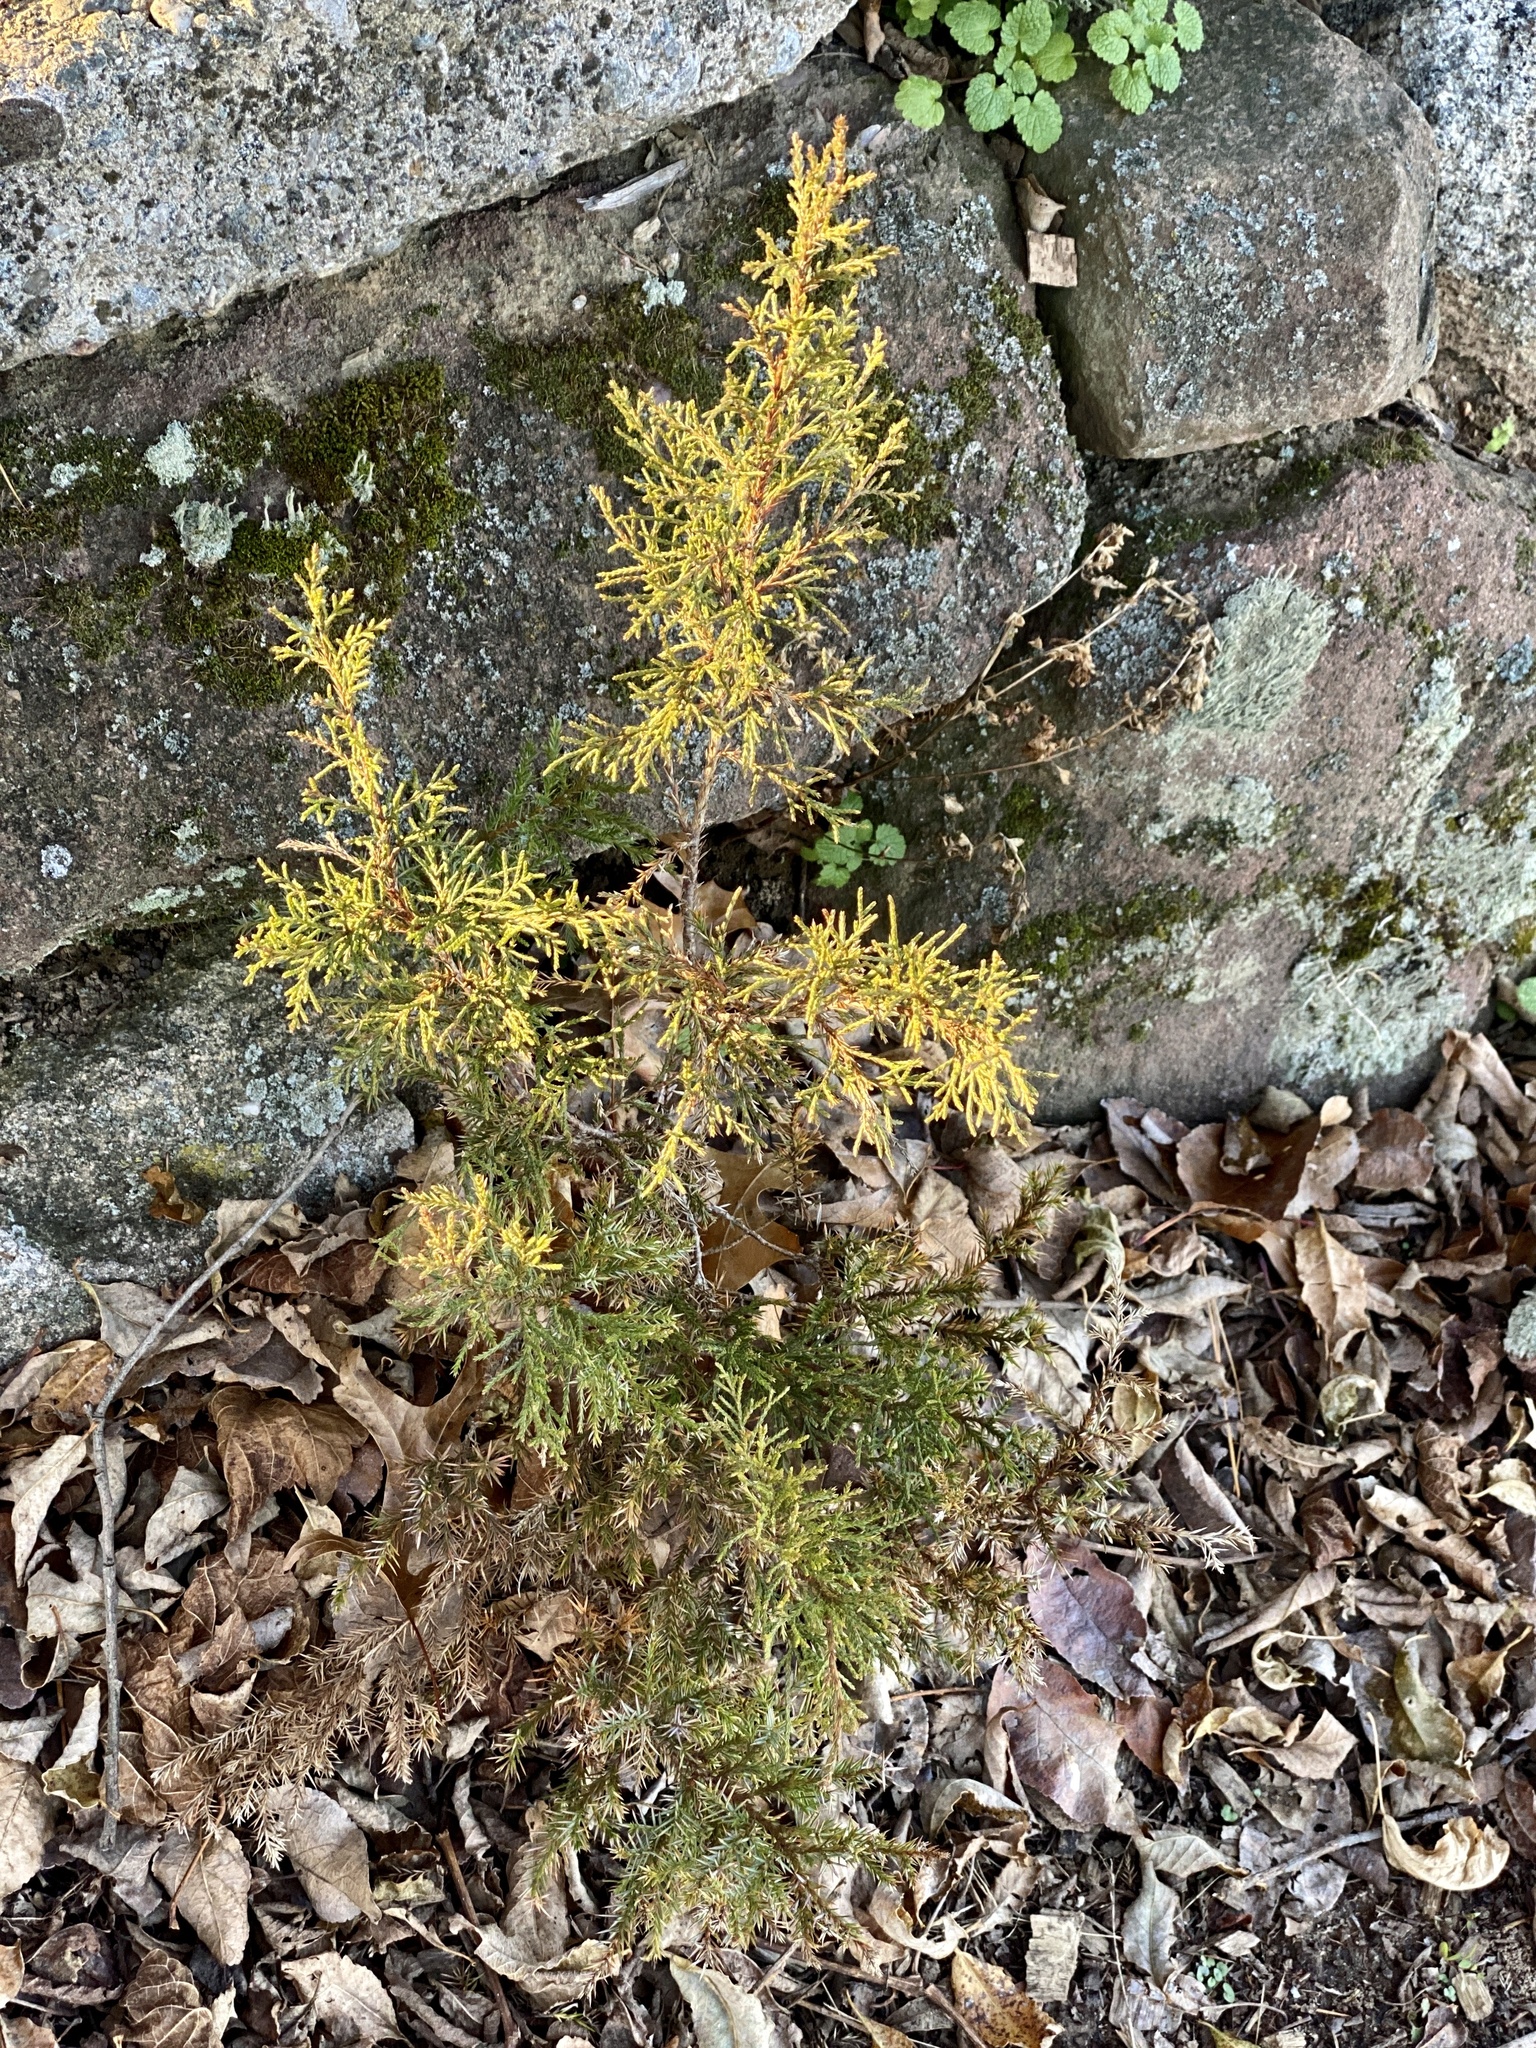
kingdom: Plantae
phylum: Tracheophyta
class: Pinopsida
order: Pinales
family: Cupressaceae
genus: Juniperus
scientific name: Juniperus virginiana
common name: Red juniper
